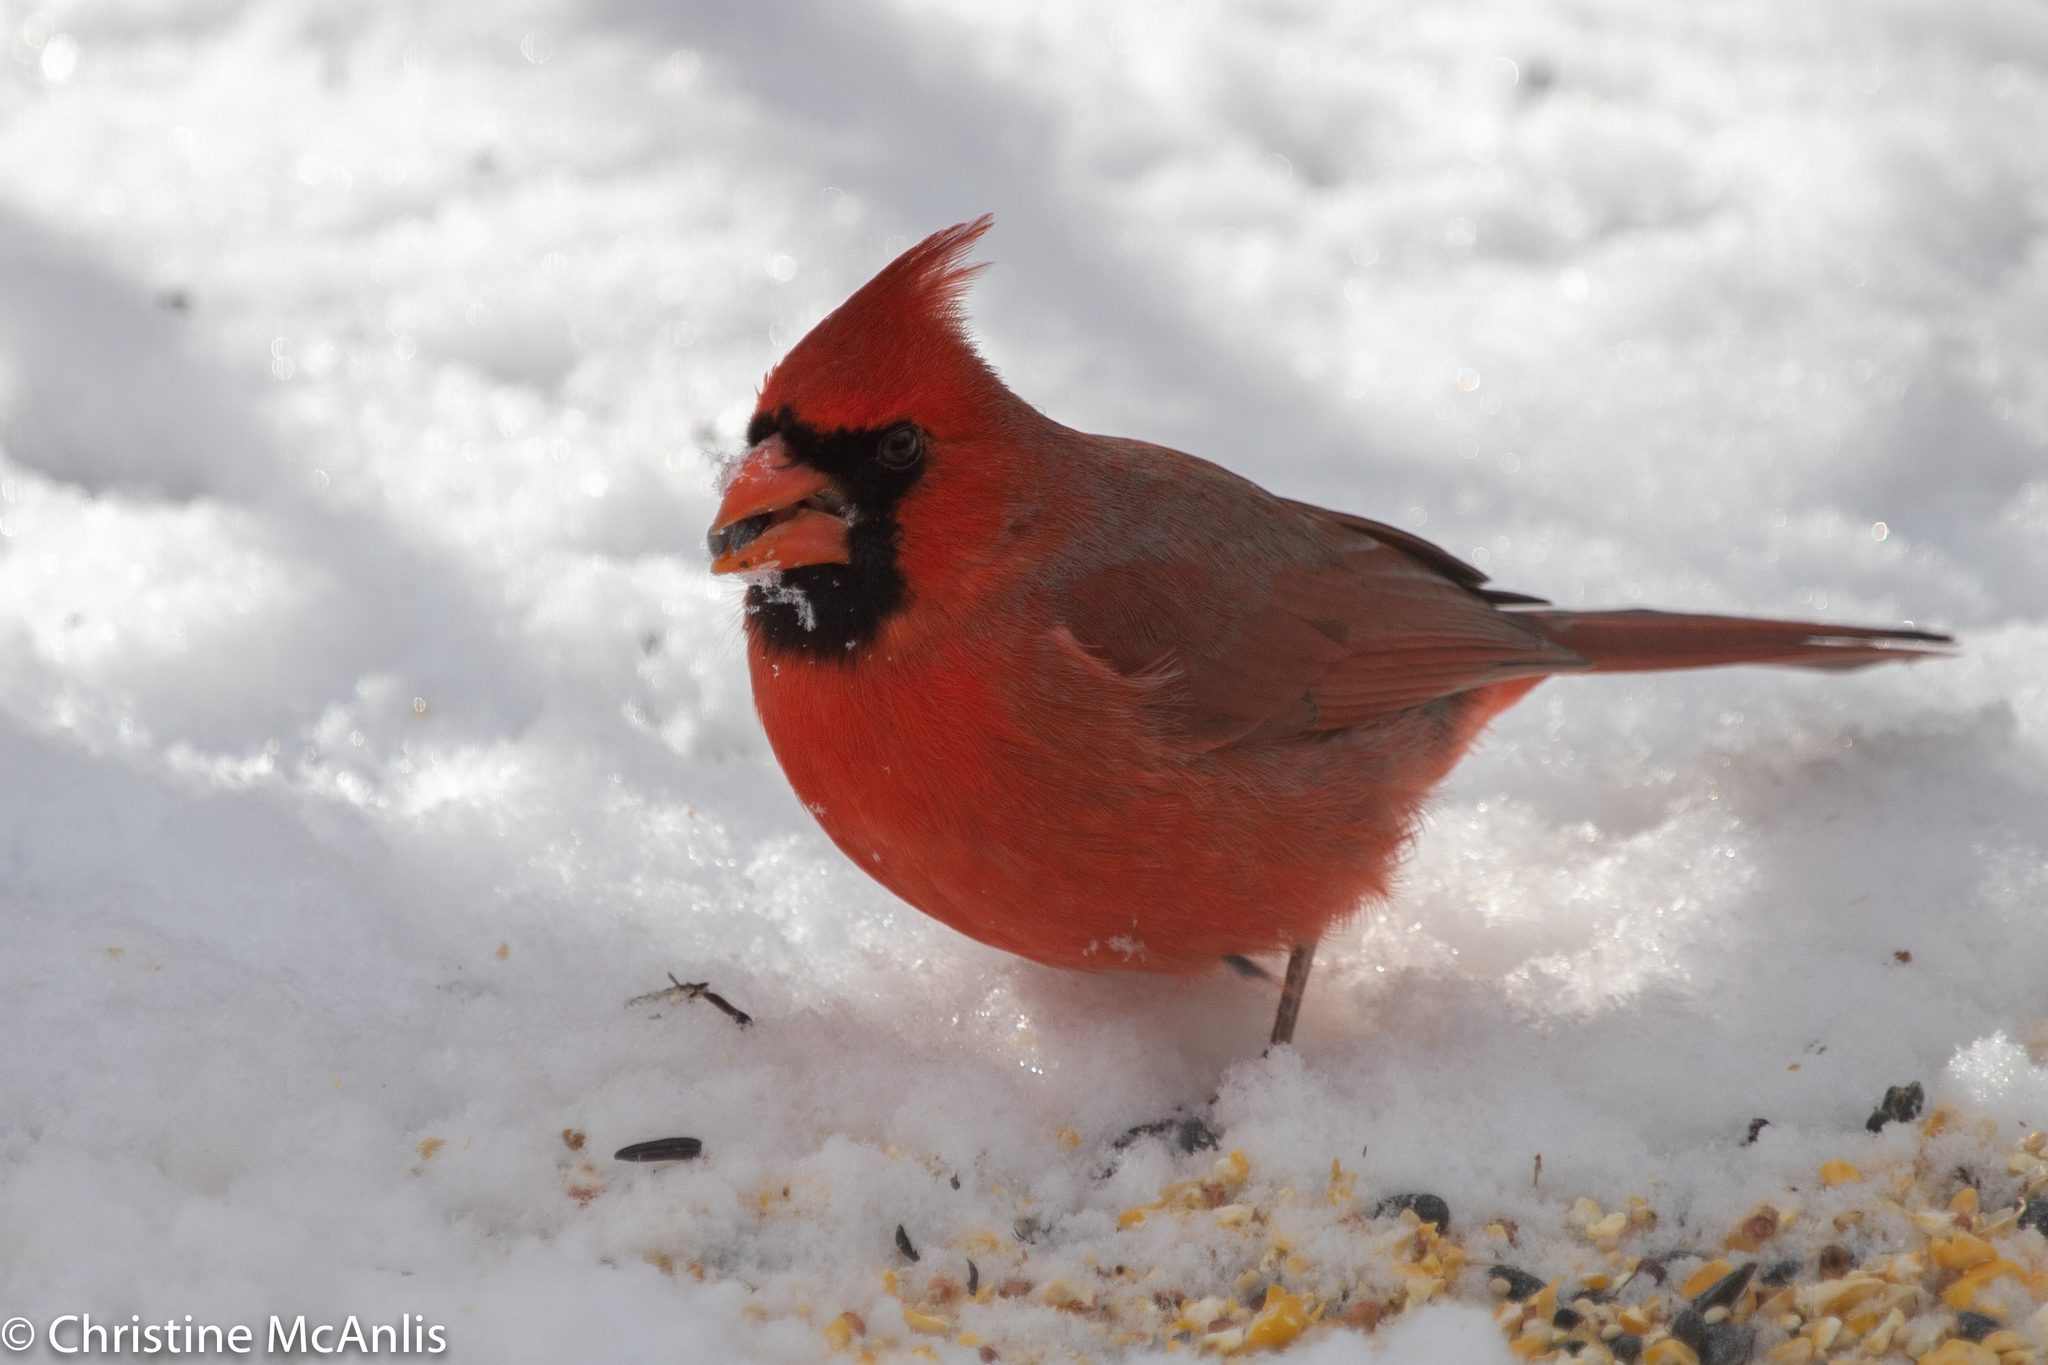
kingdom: Animalia
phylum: Chordata
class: Aves
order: Passeriformes
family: Cardinalidae
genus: Cardinalis
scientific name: Cardinalis cardinalis
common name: Northern cardinal
